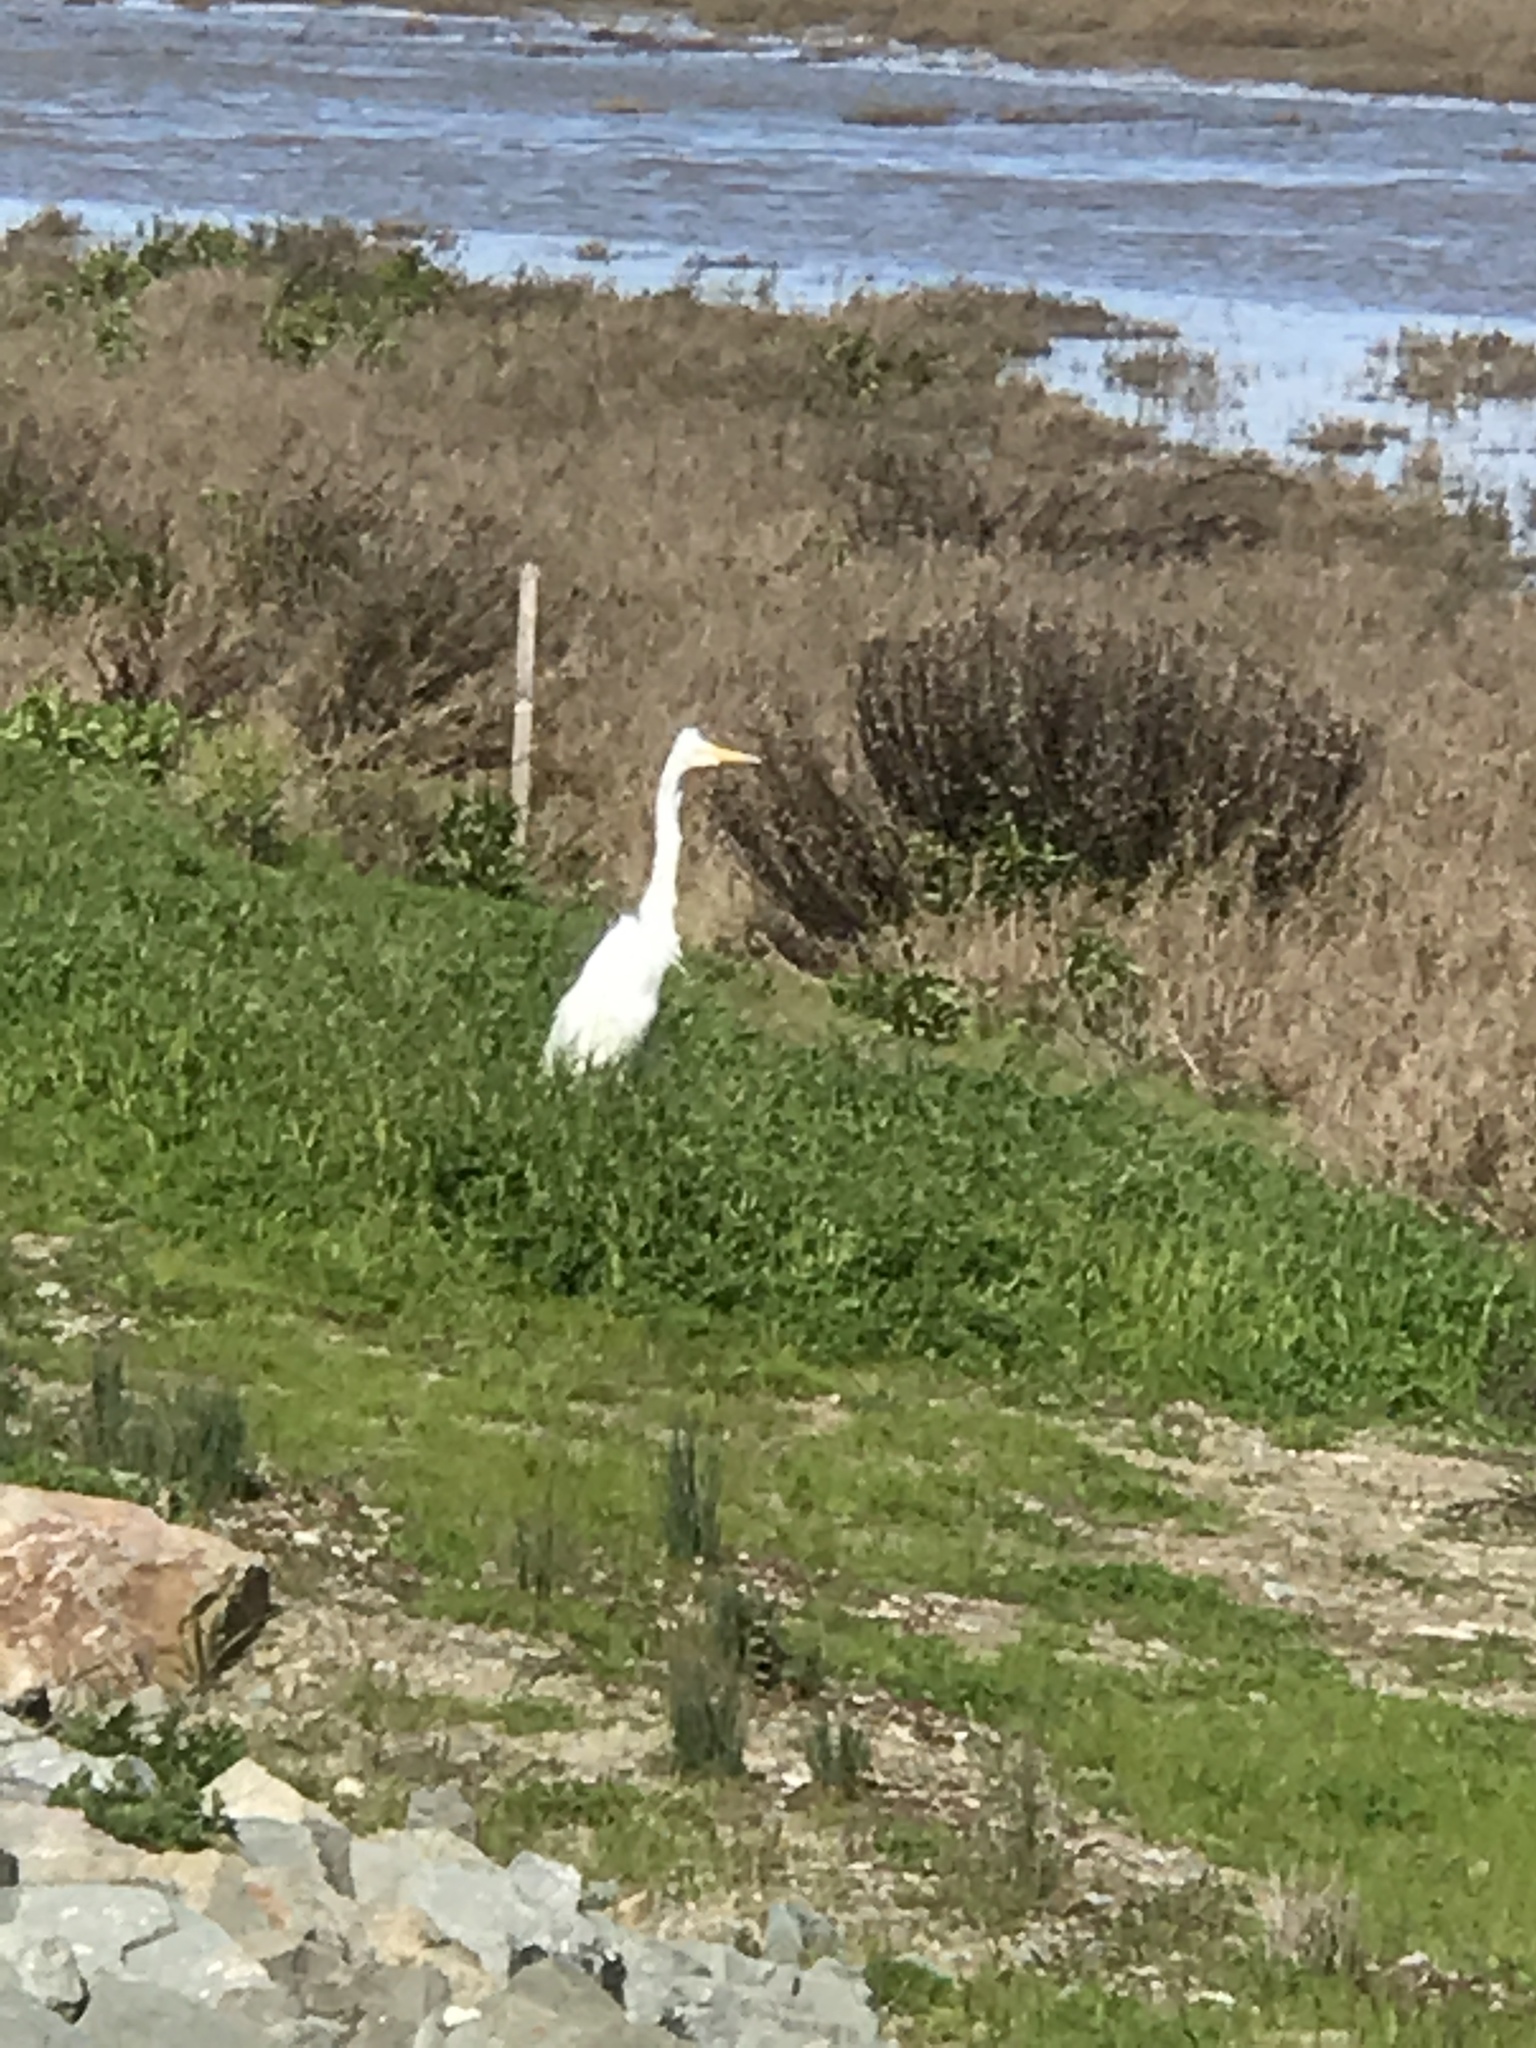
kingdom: Animalia
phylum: Chordata
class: Aves
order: Pelecaniformes
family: Ardeidae
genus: Ardea
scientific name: Ardea alba
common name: Great egret
